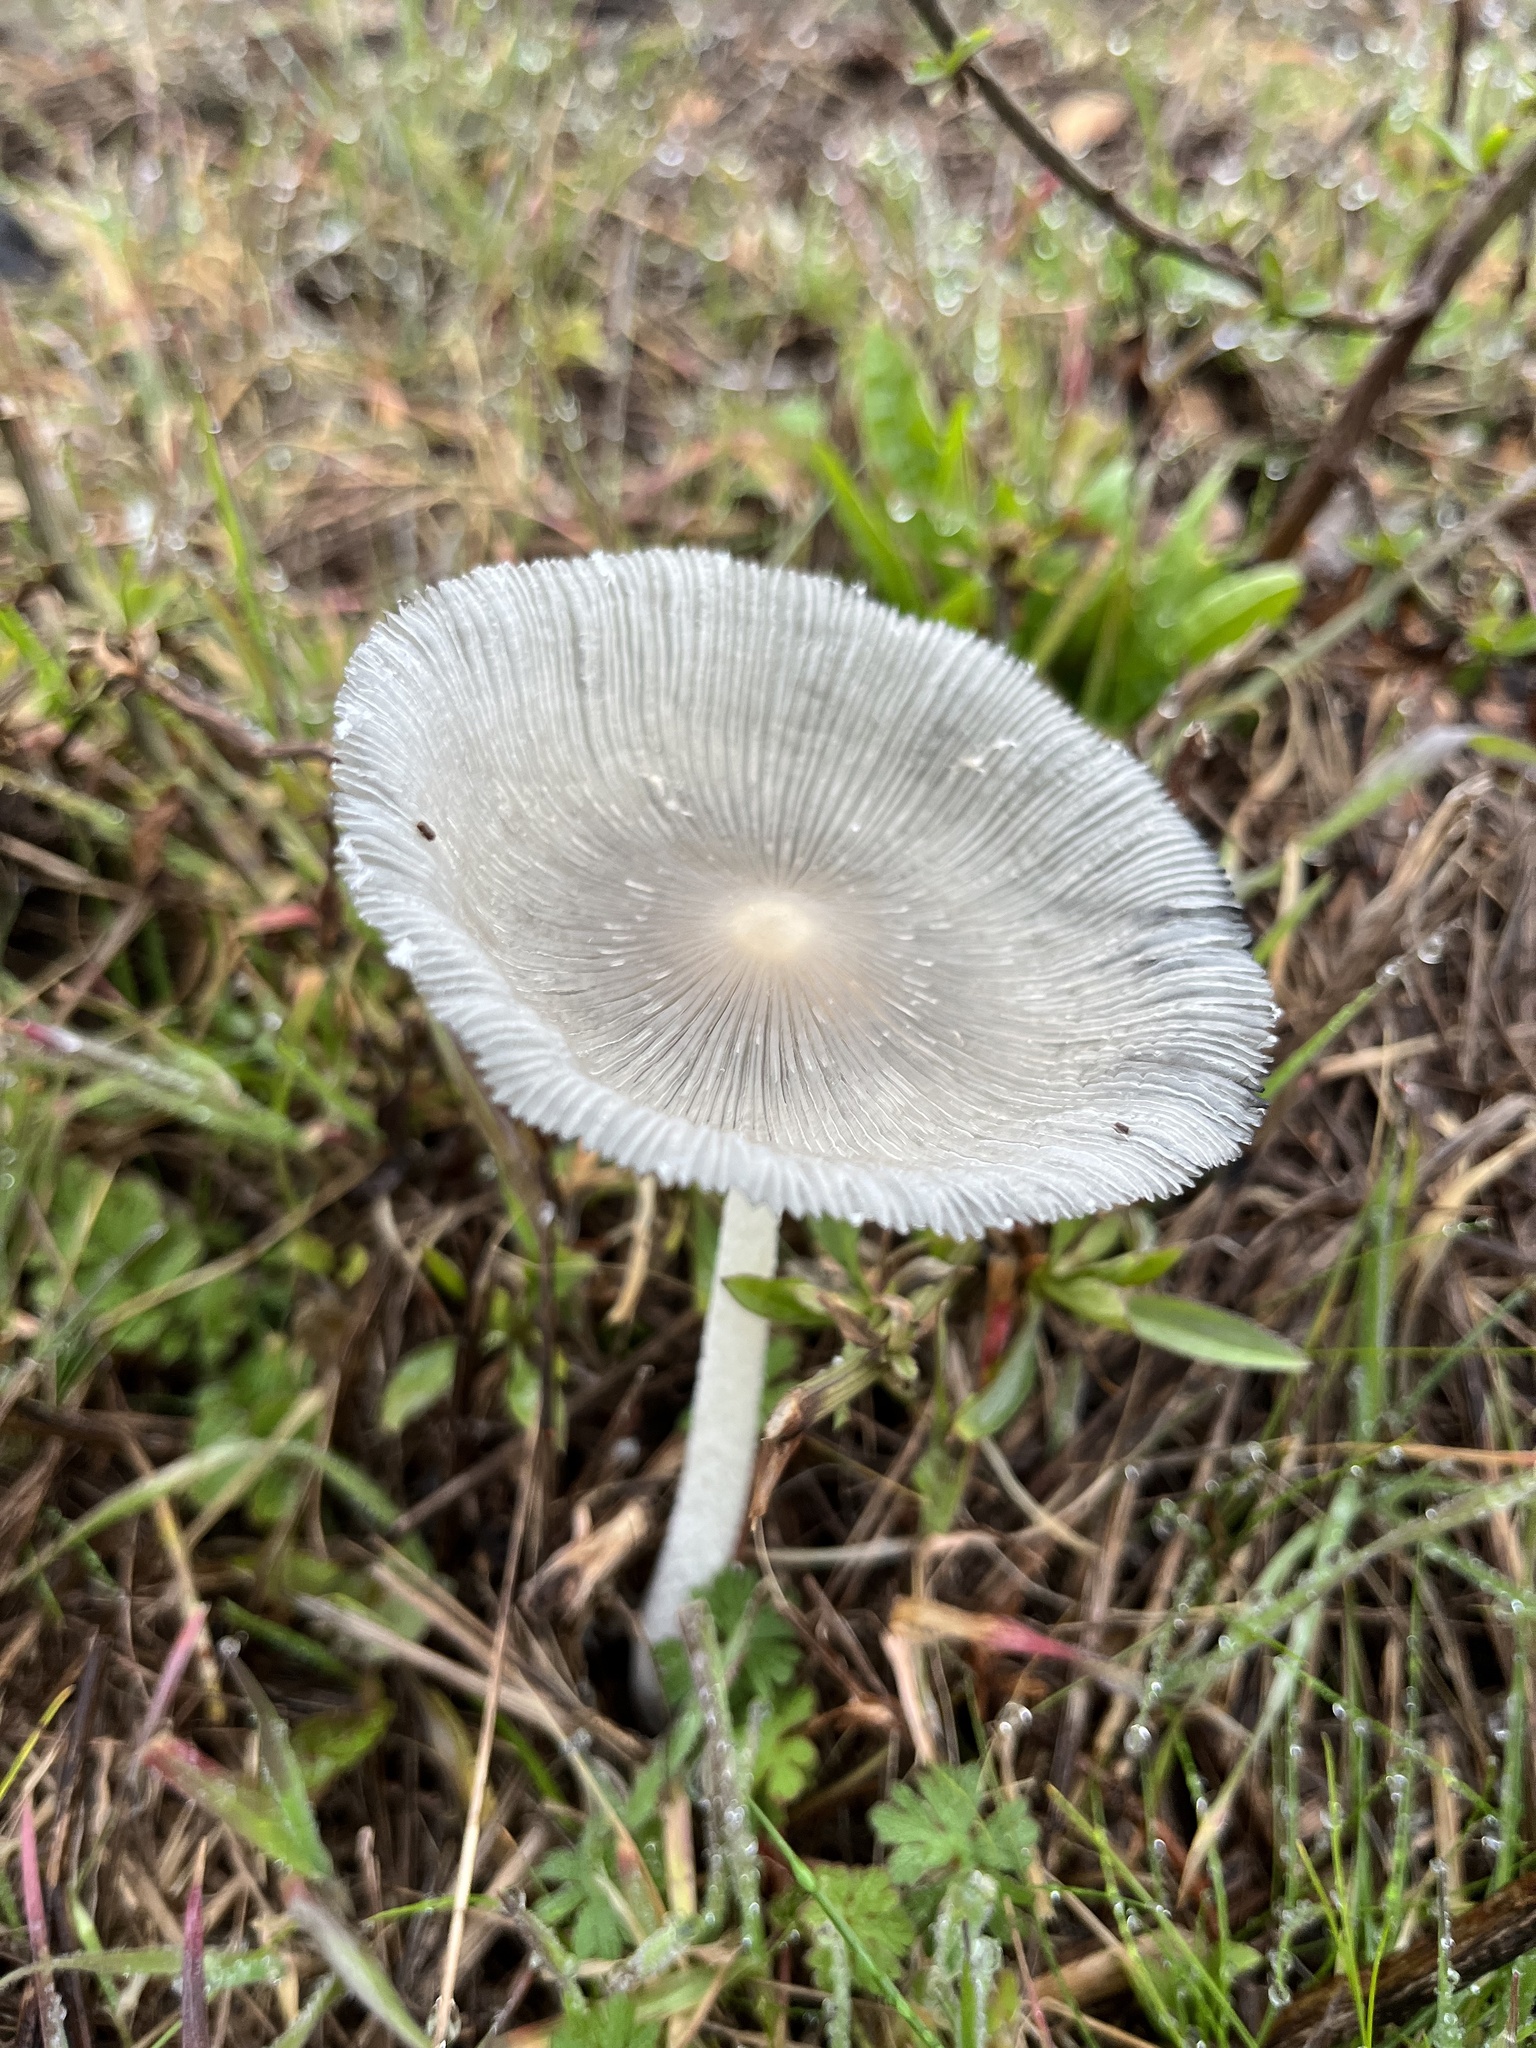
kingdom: Fungi
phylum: Basidiomycota
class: Agaricomycetes
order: Agaricales
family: Psathyrellaceae
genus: Coprinopsis
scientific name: Coprinopsis lagopus
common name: Hare'sfoot inkcap
